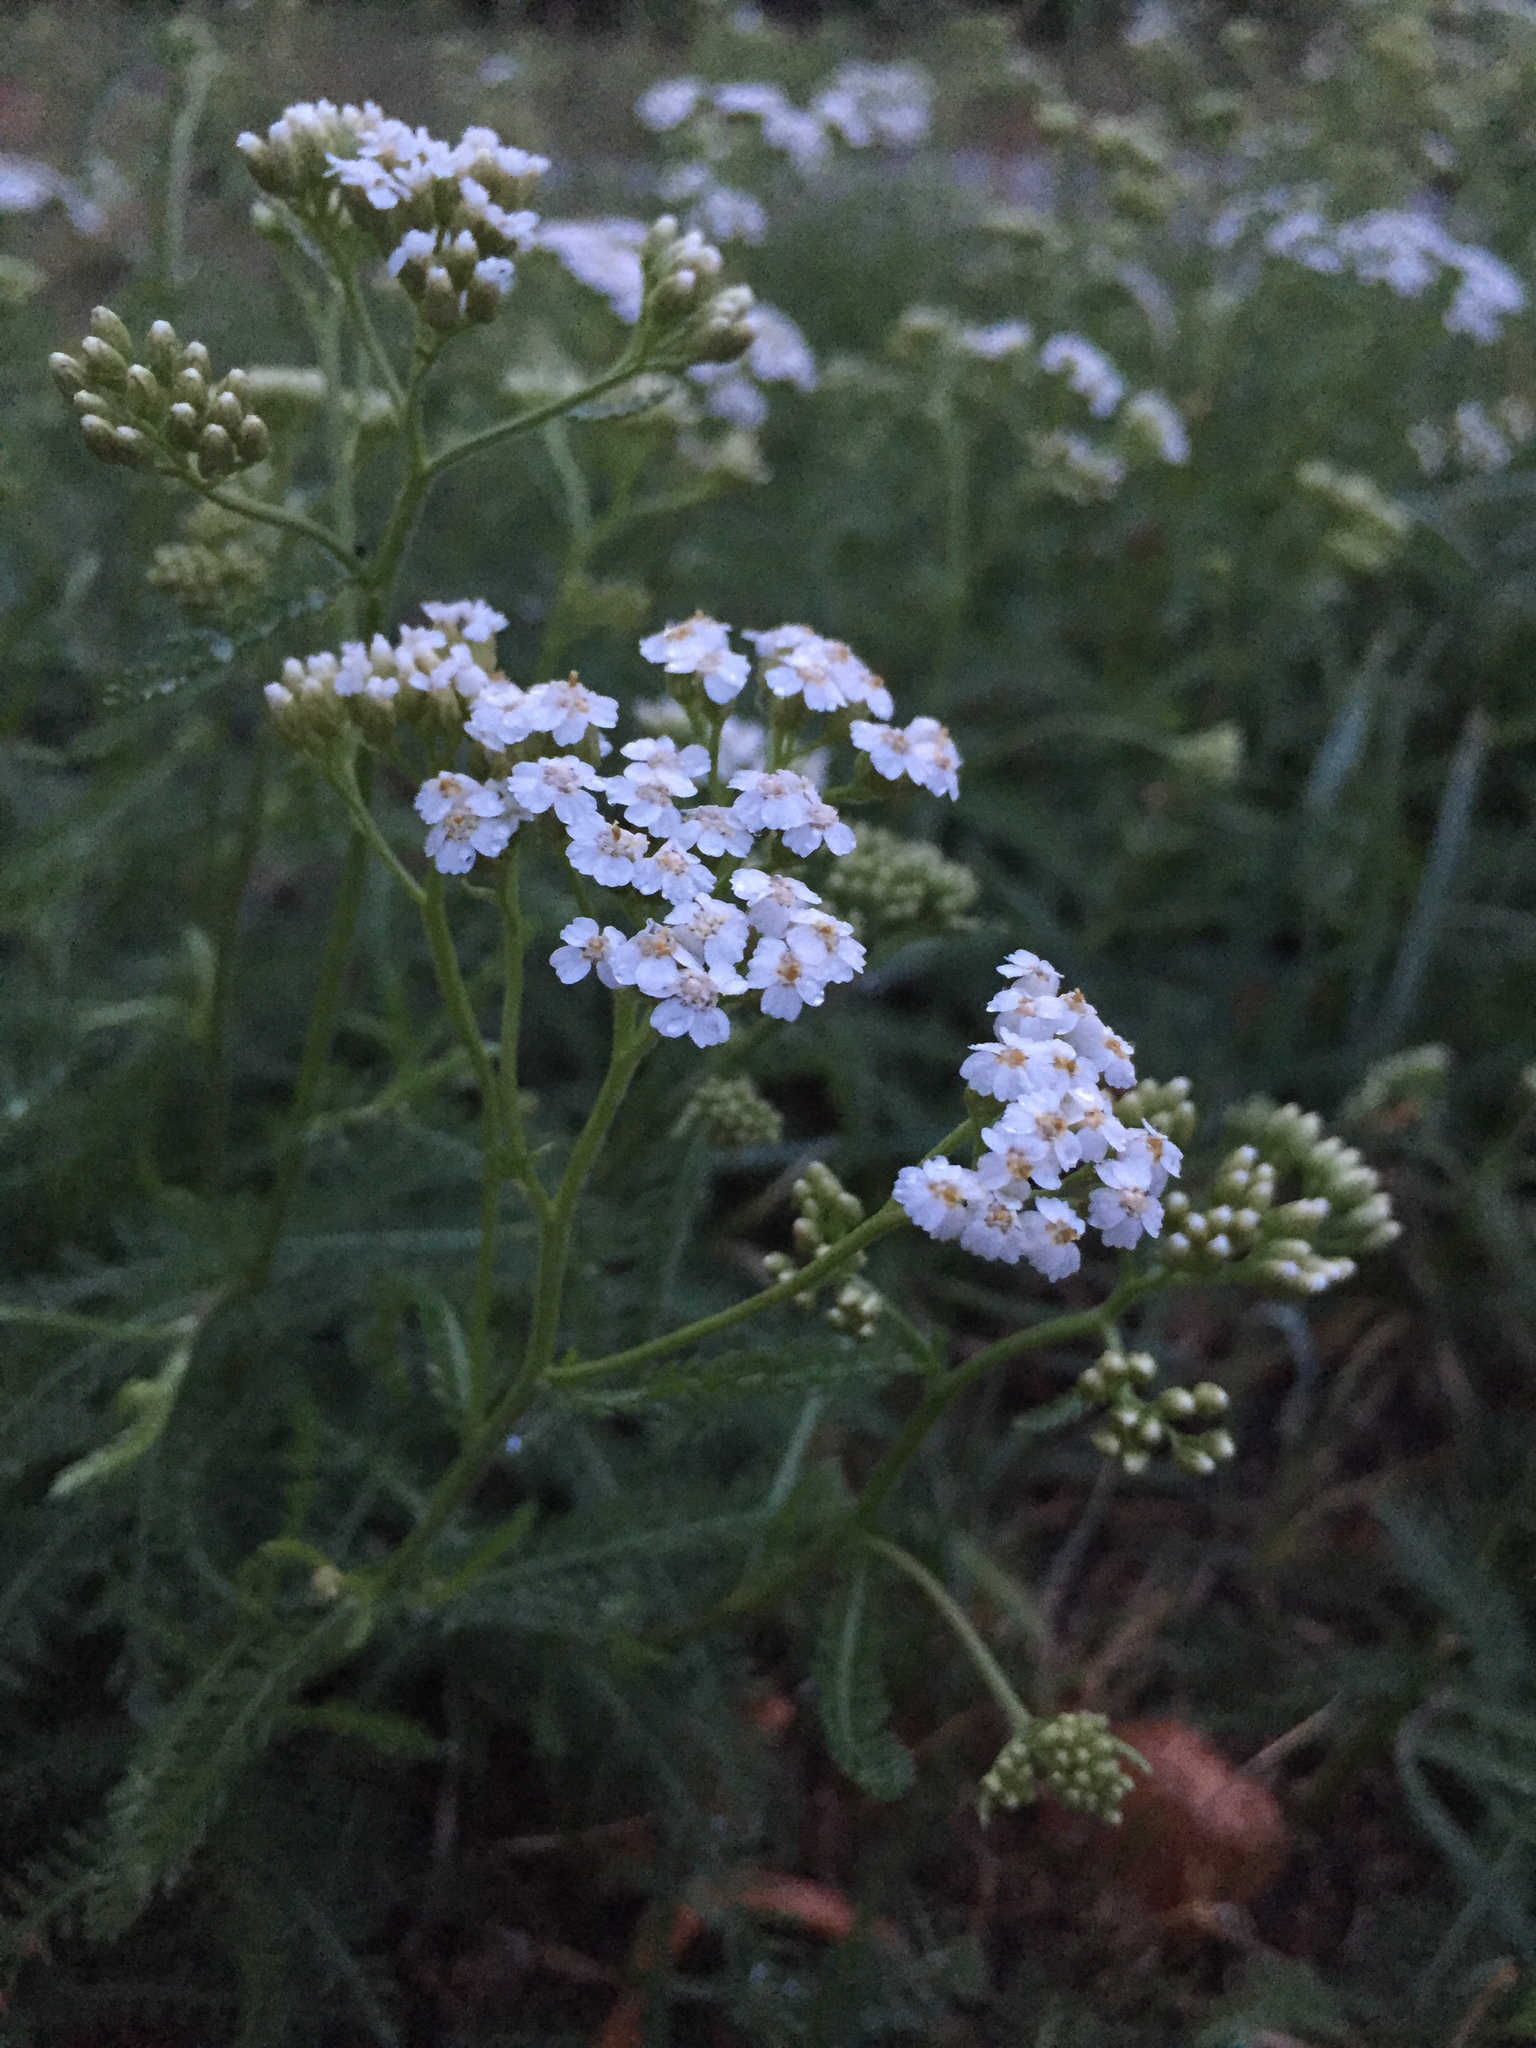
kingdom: Plantae
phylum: Tracheophyta
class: Magnoliopsida
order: Asterales
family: Asteraceae
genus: Achillea
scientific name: Achillea millefolium
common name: Yarrow
